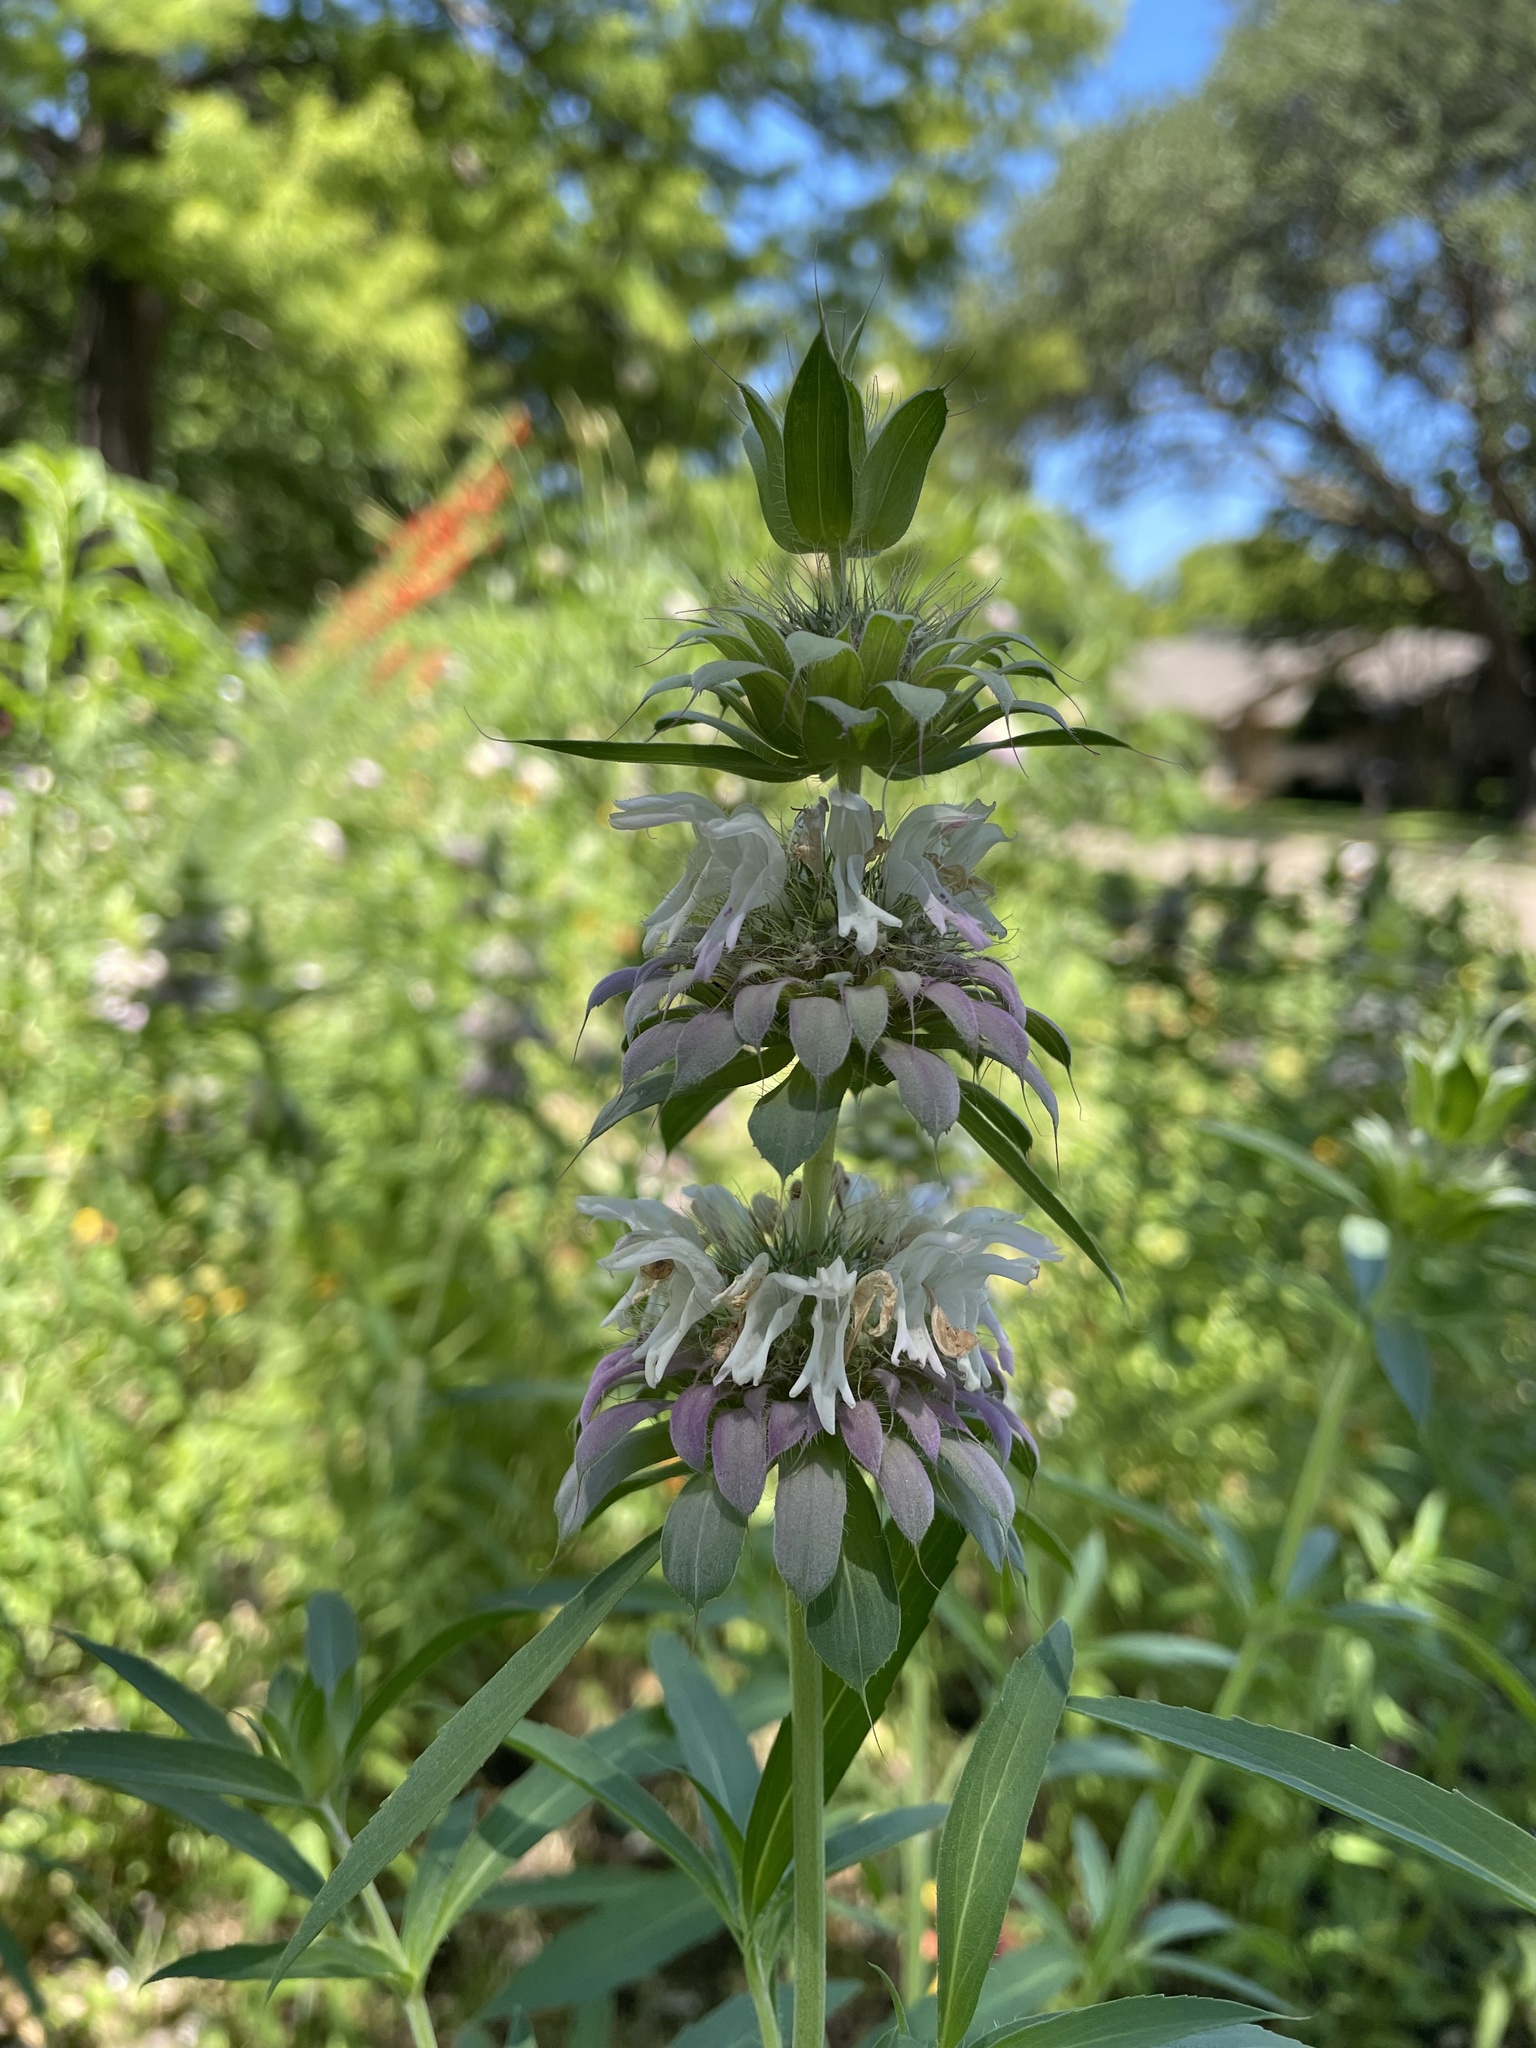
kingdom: Plantae
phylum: Tracheophyta
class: Magnoliopsida
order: Lamiales
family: Lamiaceae
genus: Monarda
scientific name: Monarda citriodora
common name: Lemon beebalm
